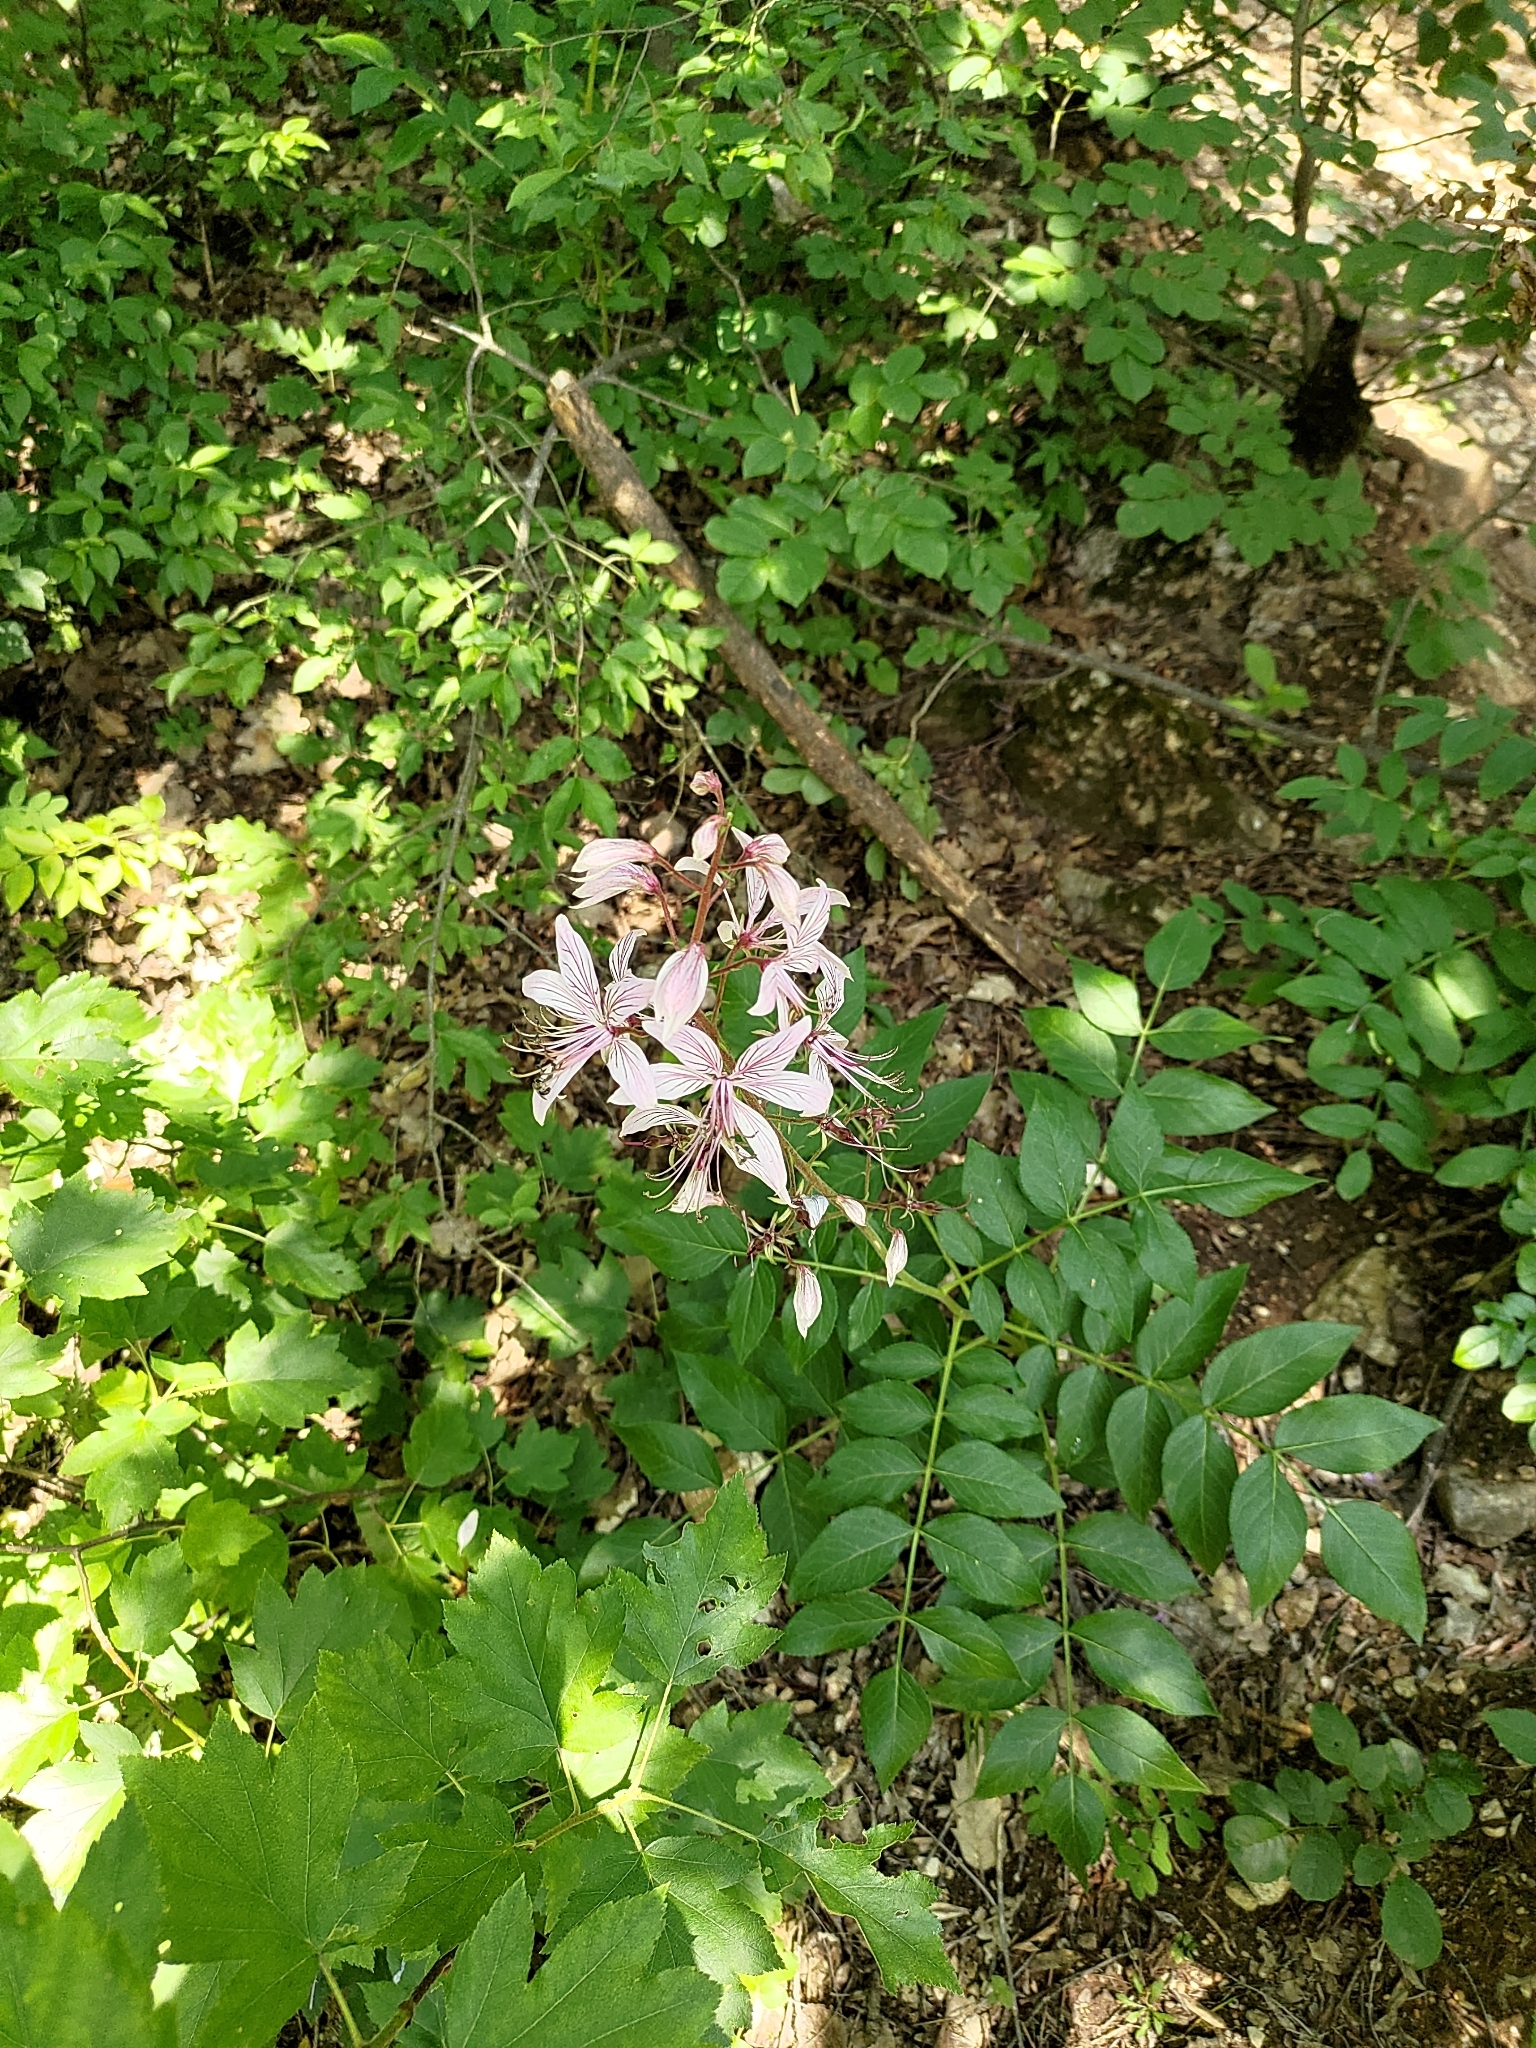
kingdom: Plantae
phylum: Tracheophyta
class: Magnoliopsida
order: Sapindales
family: Rutaceae
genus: Dictamnus
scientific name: Dictamnus albus
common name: Gasplant
